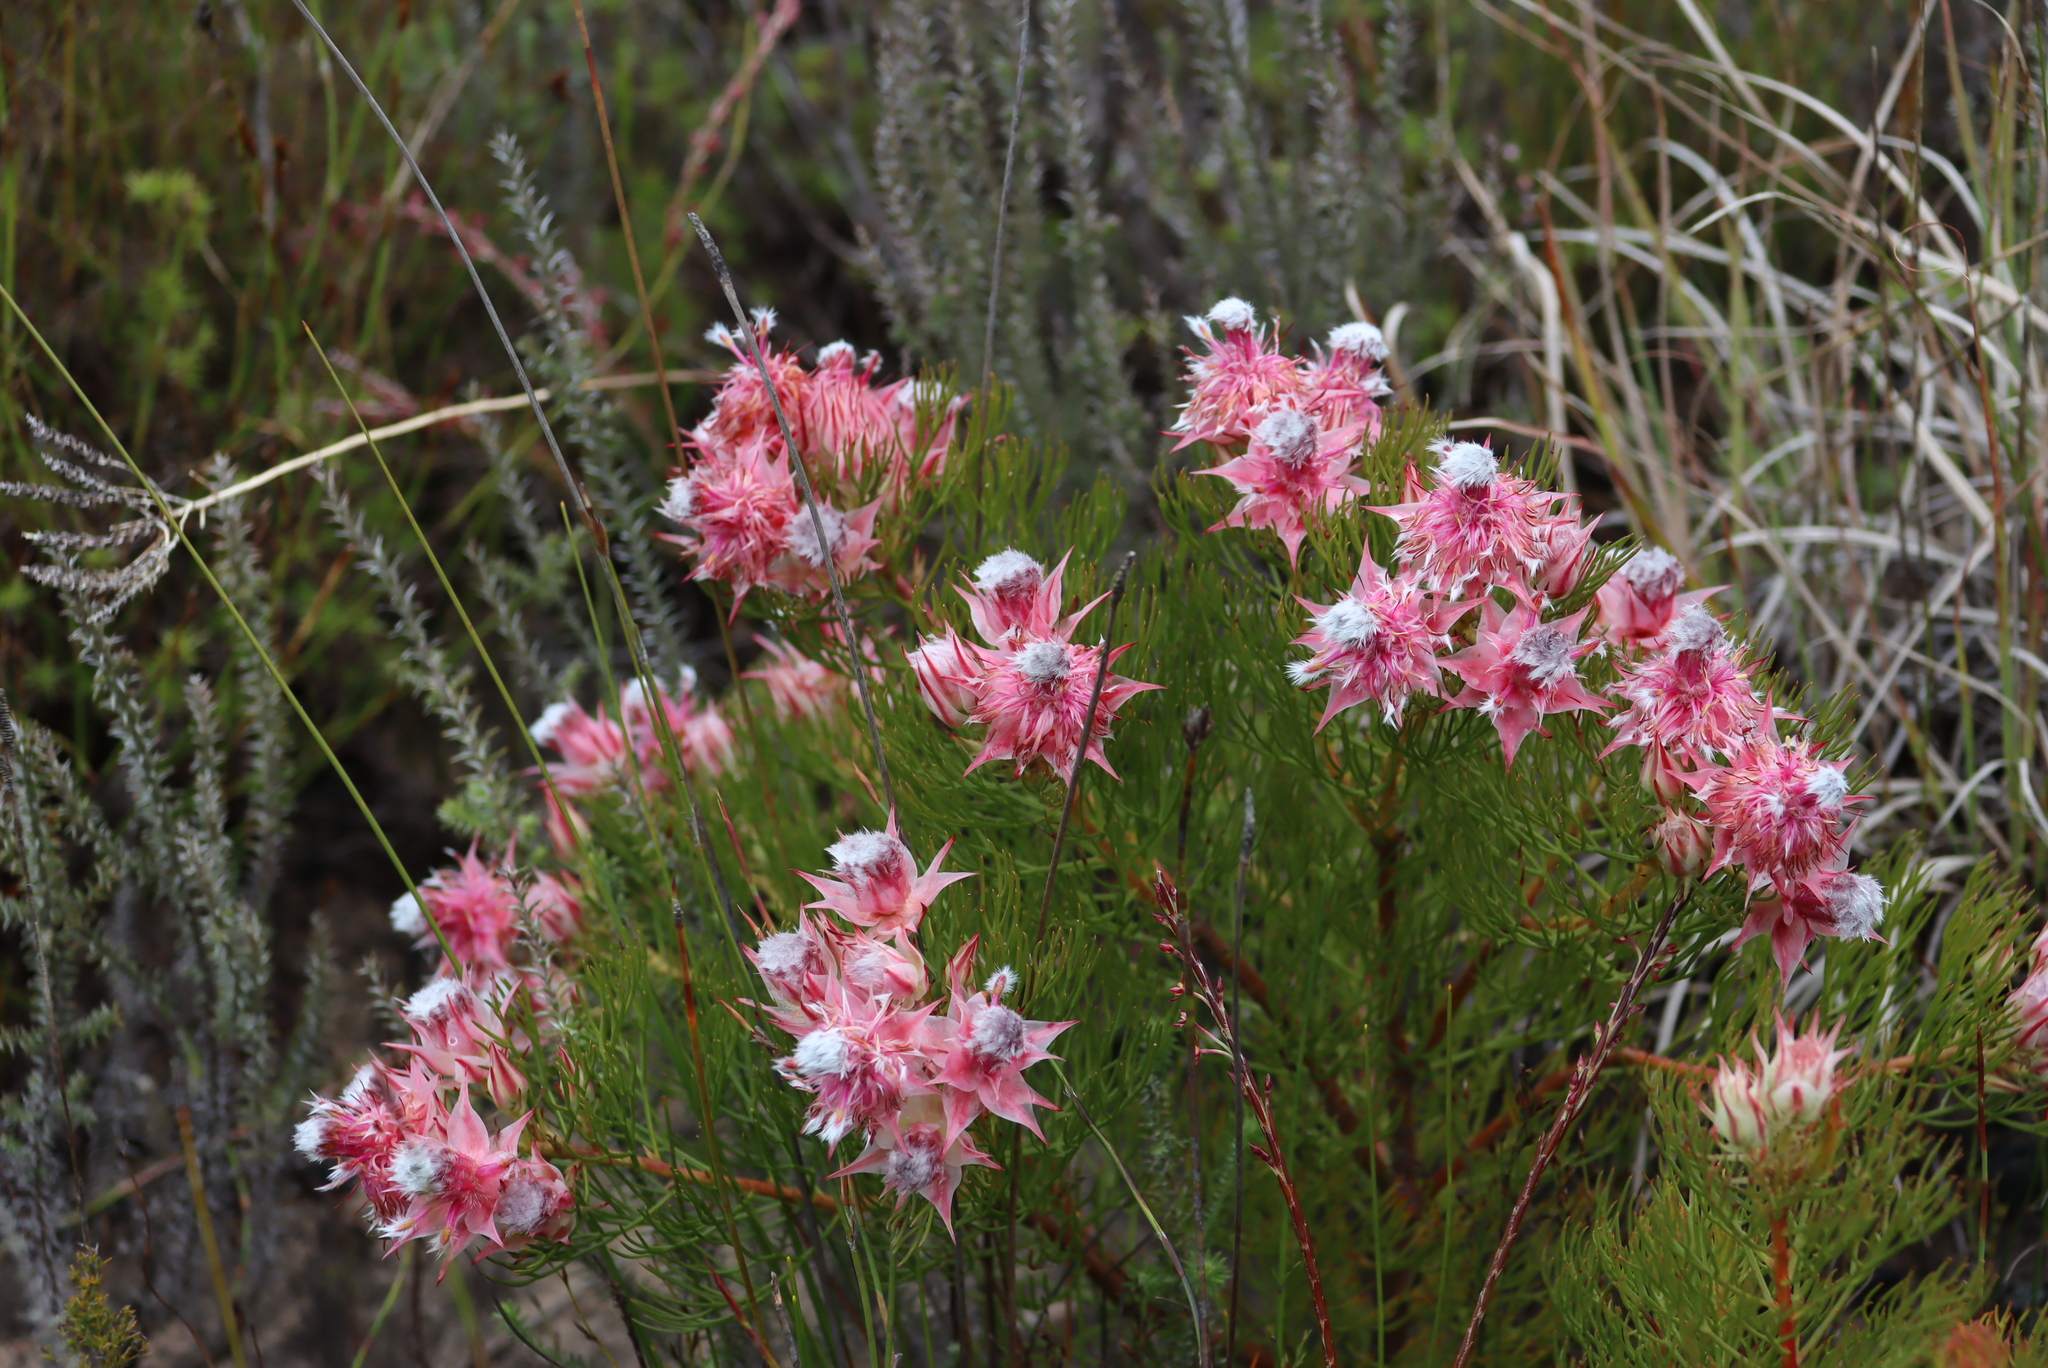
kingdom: Plantae
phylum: Tracheophyta
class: Magnoliopsida
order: Proteales
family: Proteaceae
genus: Serruria
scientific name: Serruria rosea
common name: Rose spiderhead
